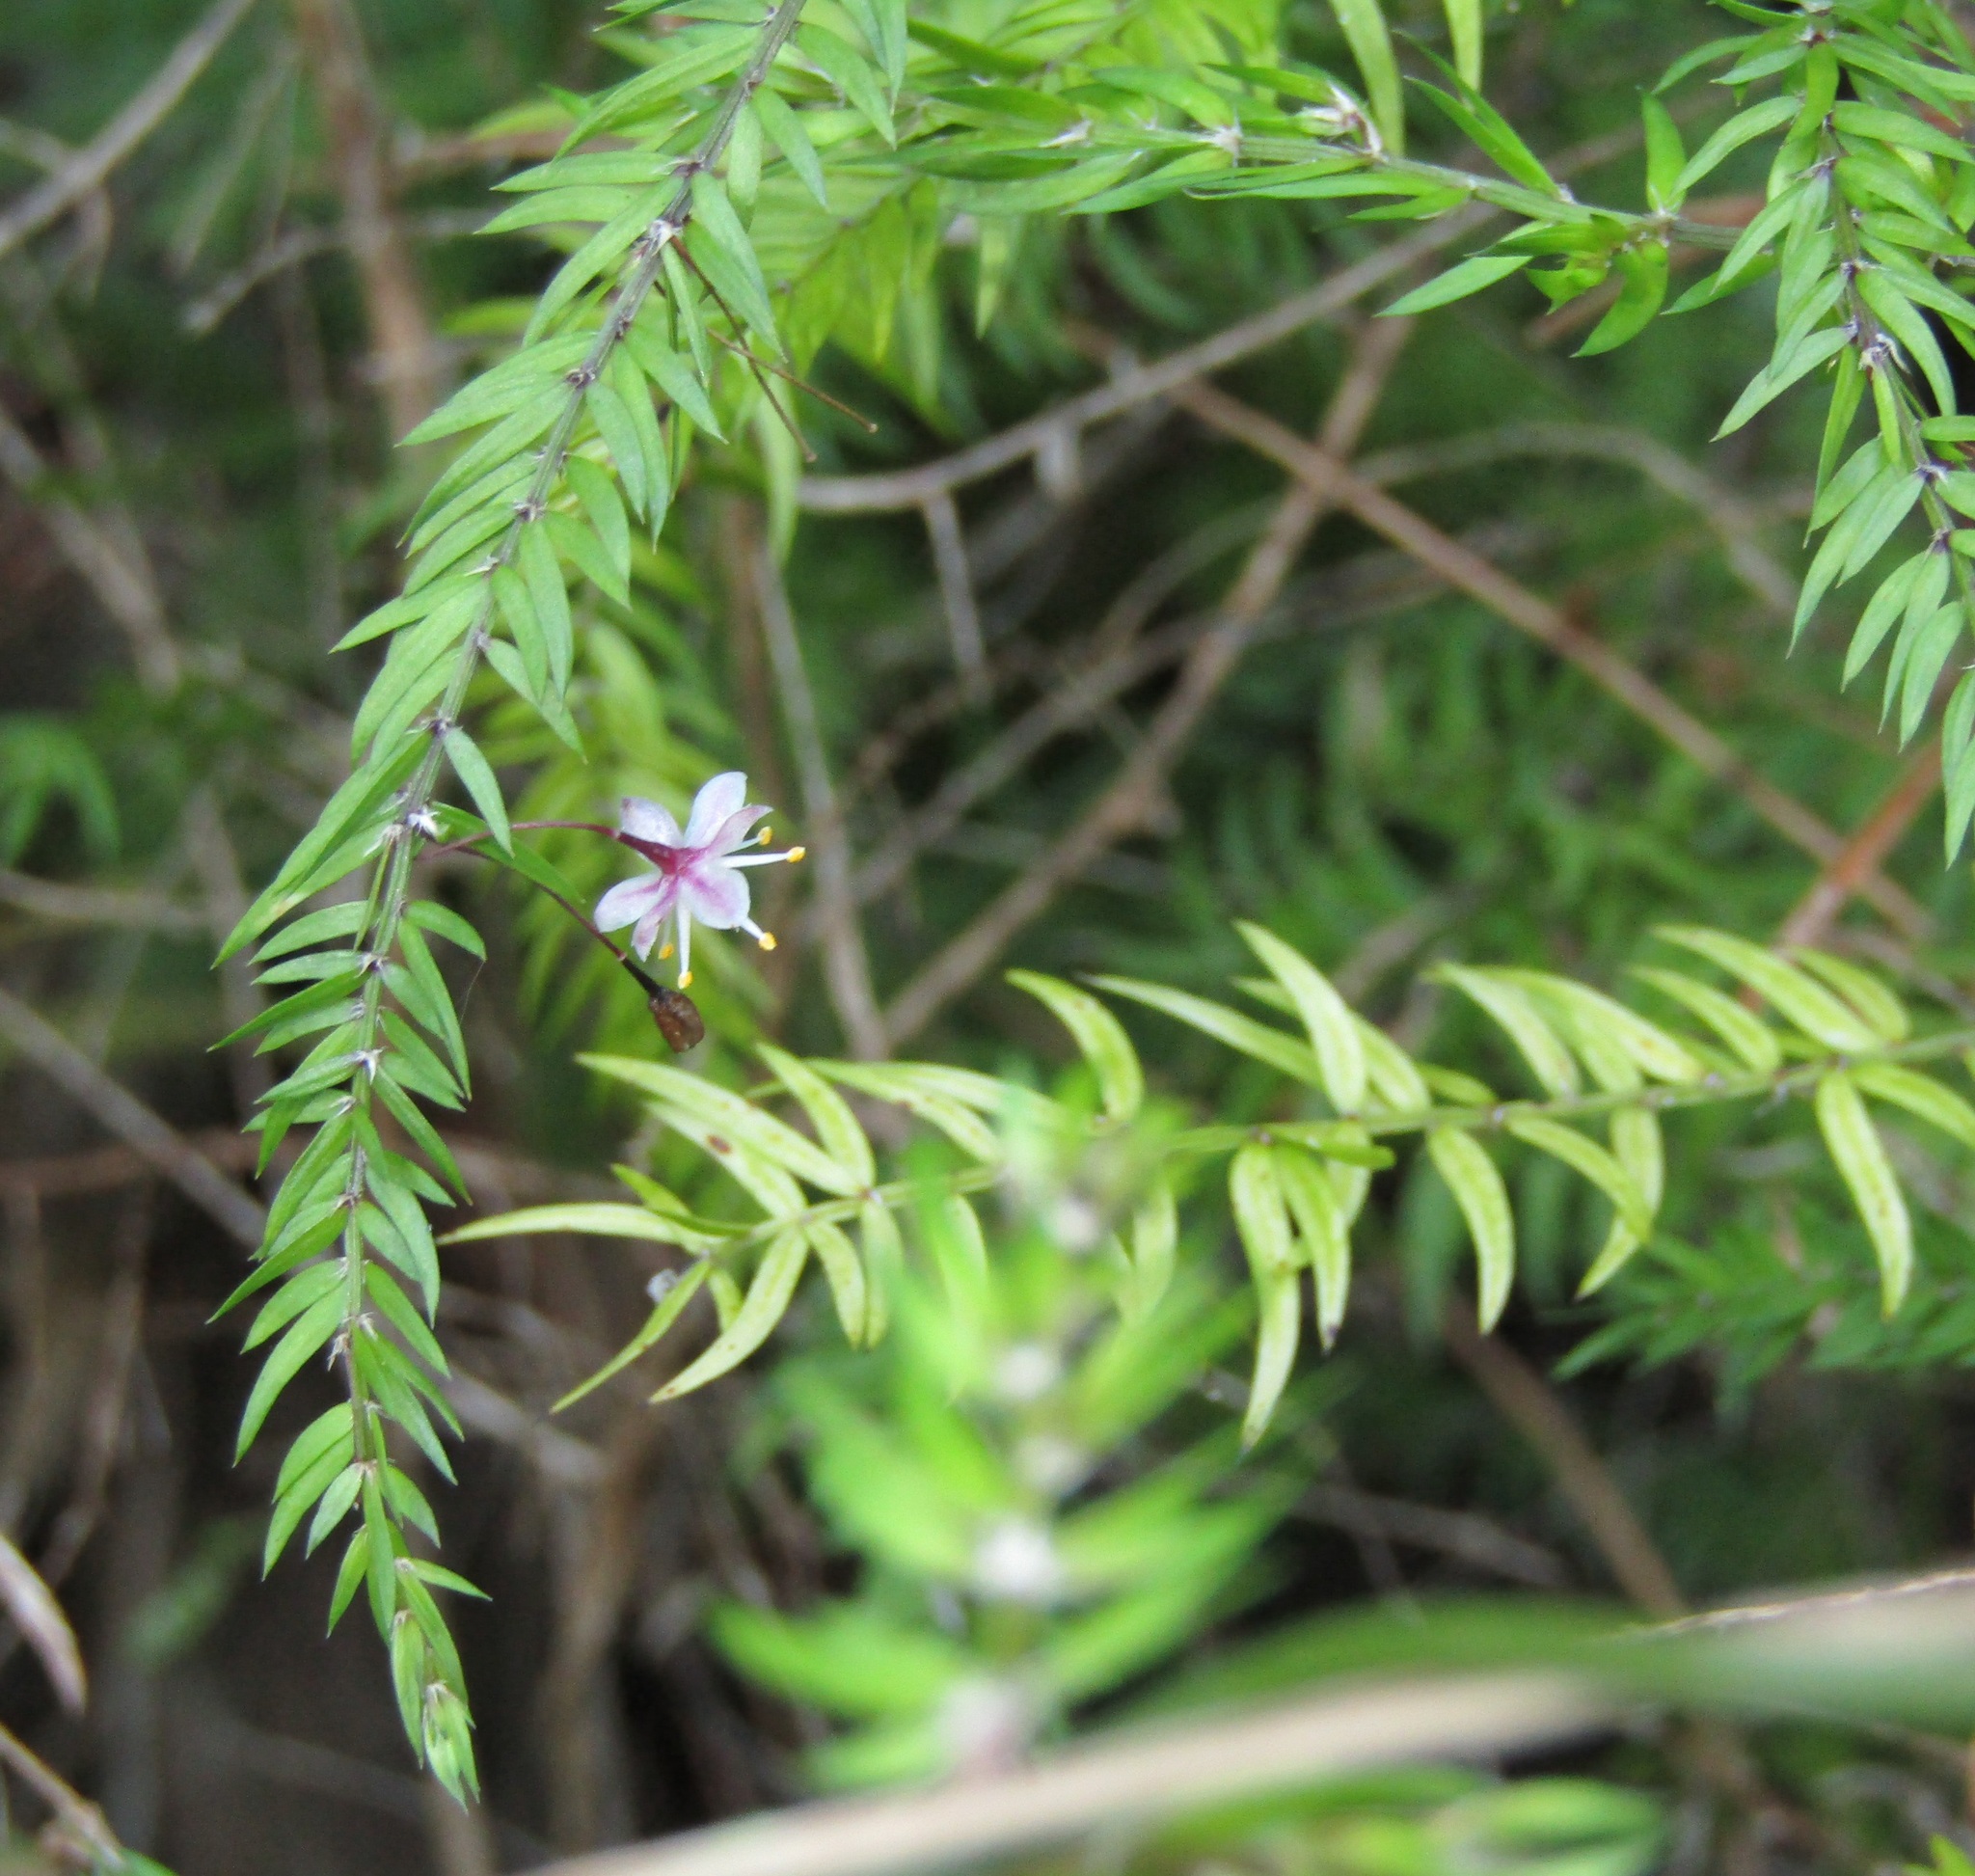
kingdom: Plantae
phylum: Tracheophyta
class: Liliopsida
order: Asparagales
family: Asparagaceae
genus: Asparagus
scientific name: Asparagus scandens
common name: Asparagus-fern
